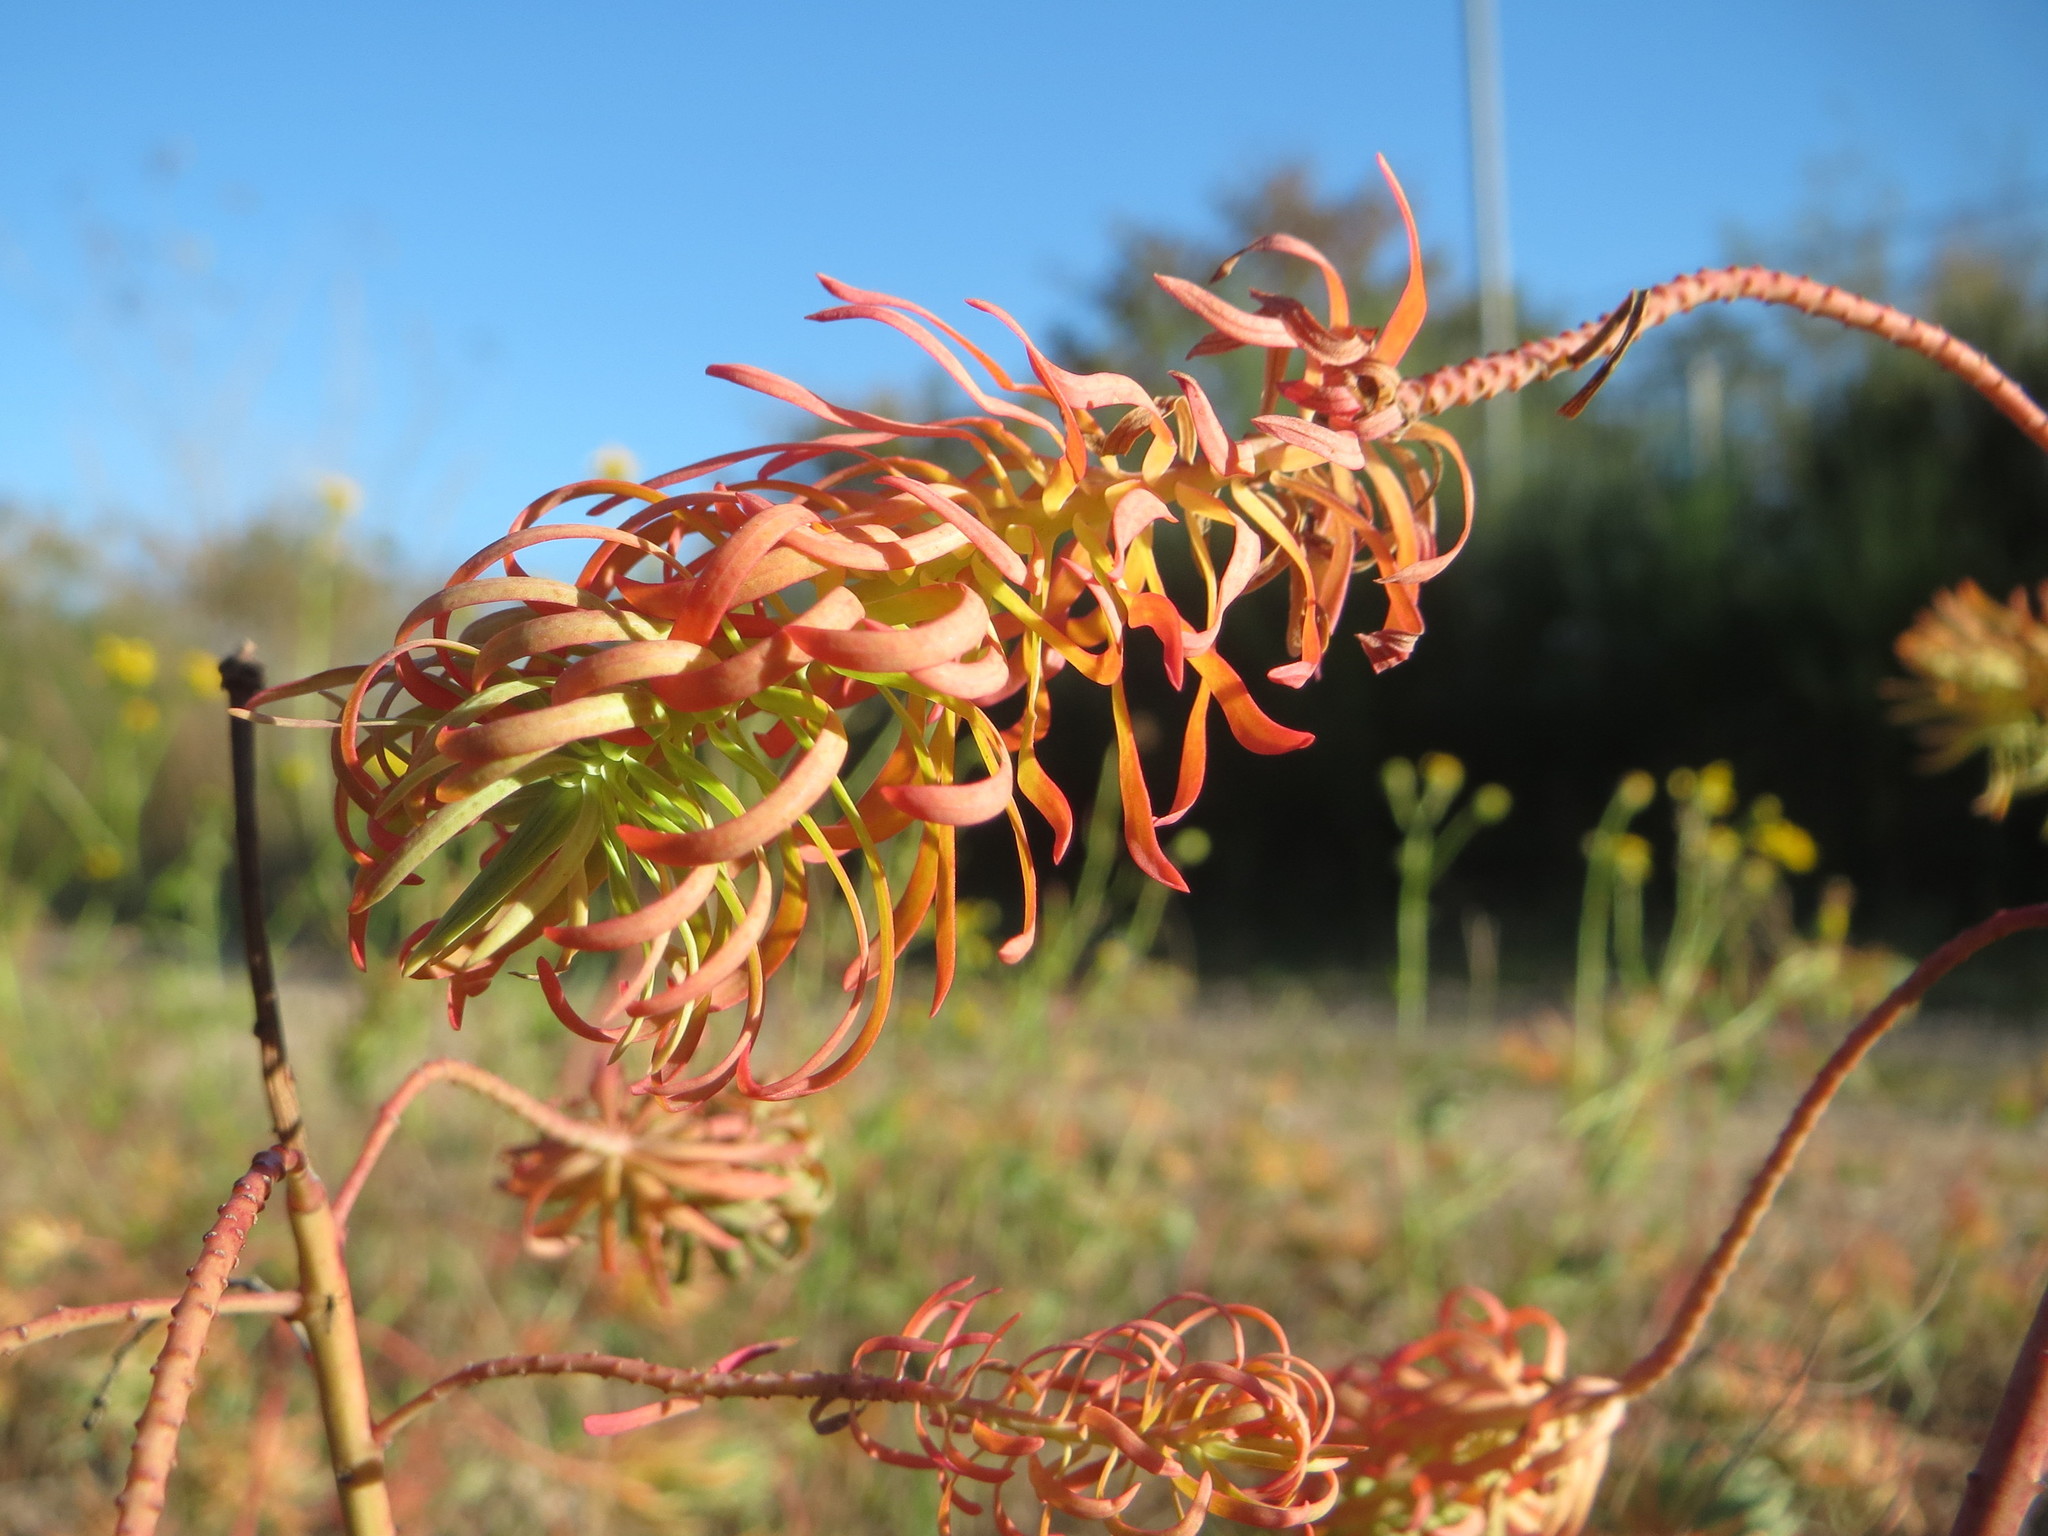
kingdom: Plantae
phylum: Tracheophyta
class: Magnoliopsida
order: Malpighiales
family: Euphorbiaceae
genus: Euphorbia
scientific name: Euphorbia cyparissias
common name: Cypress spurge
